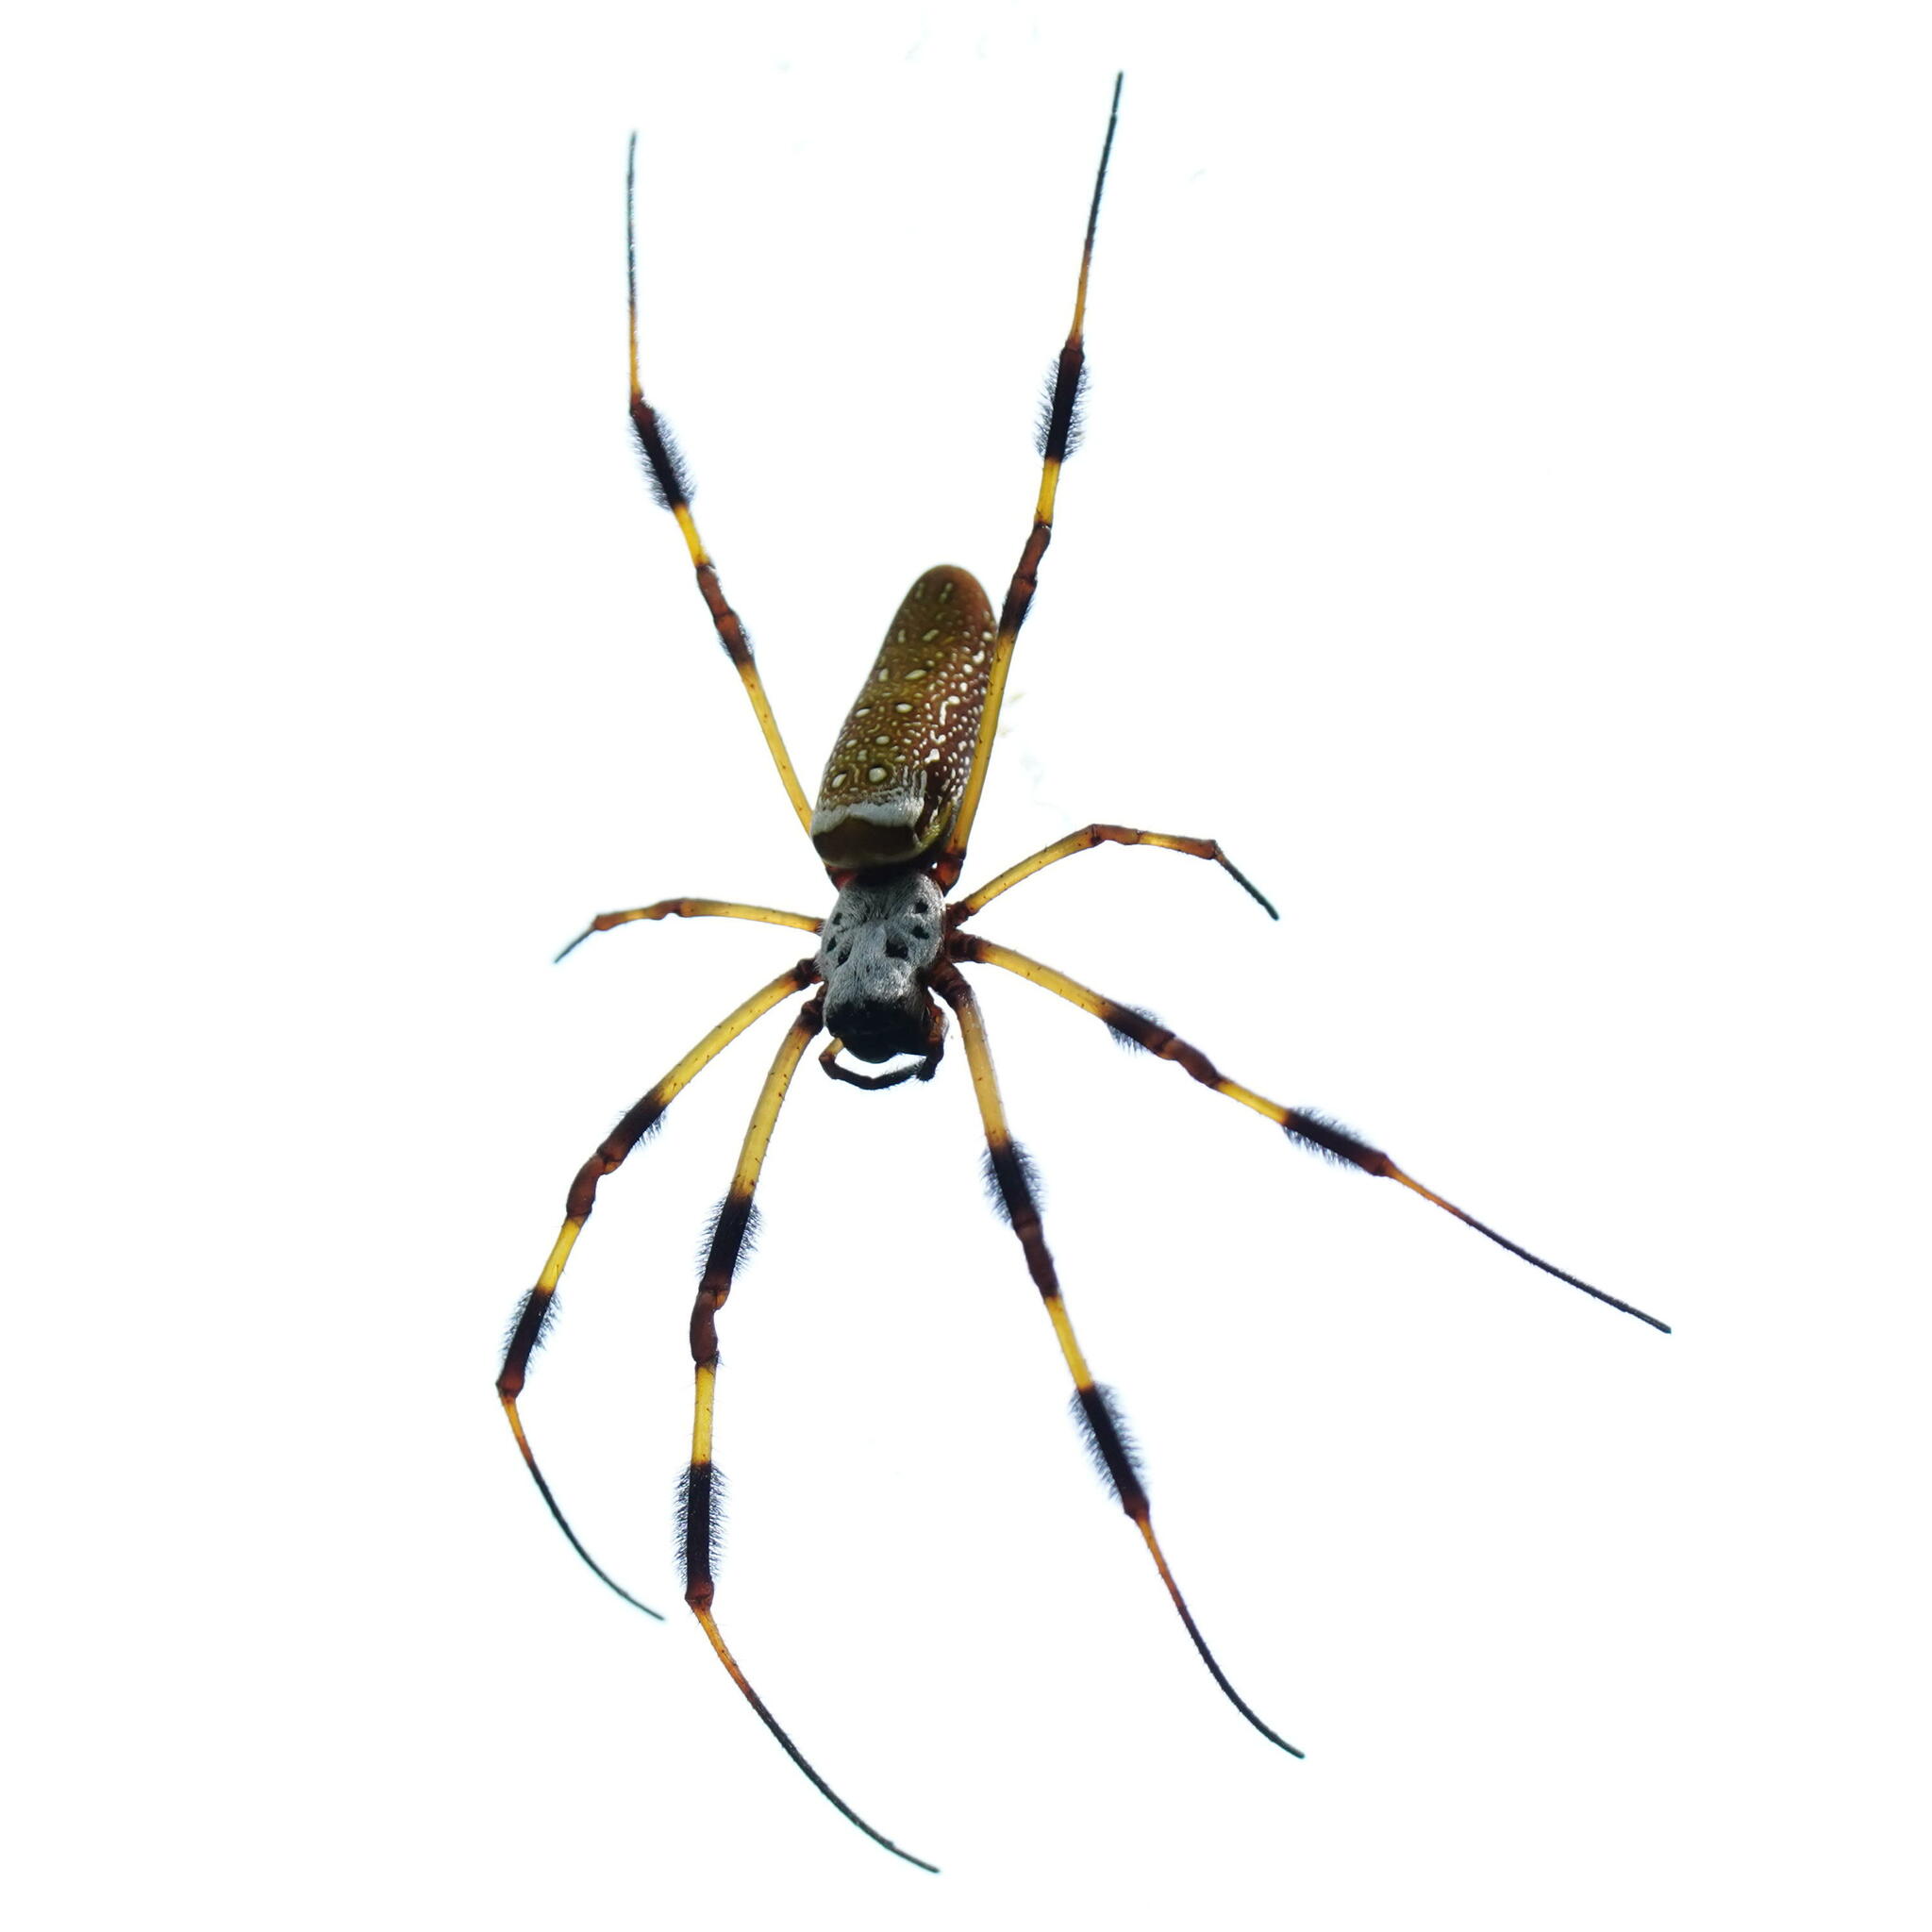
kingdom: Animalia
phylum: Arthropoda
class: Arachnida
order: Araneae
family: Araneidae
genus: Trichonephila
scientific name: Trichonephila clavipes
